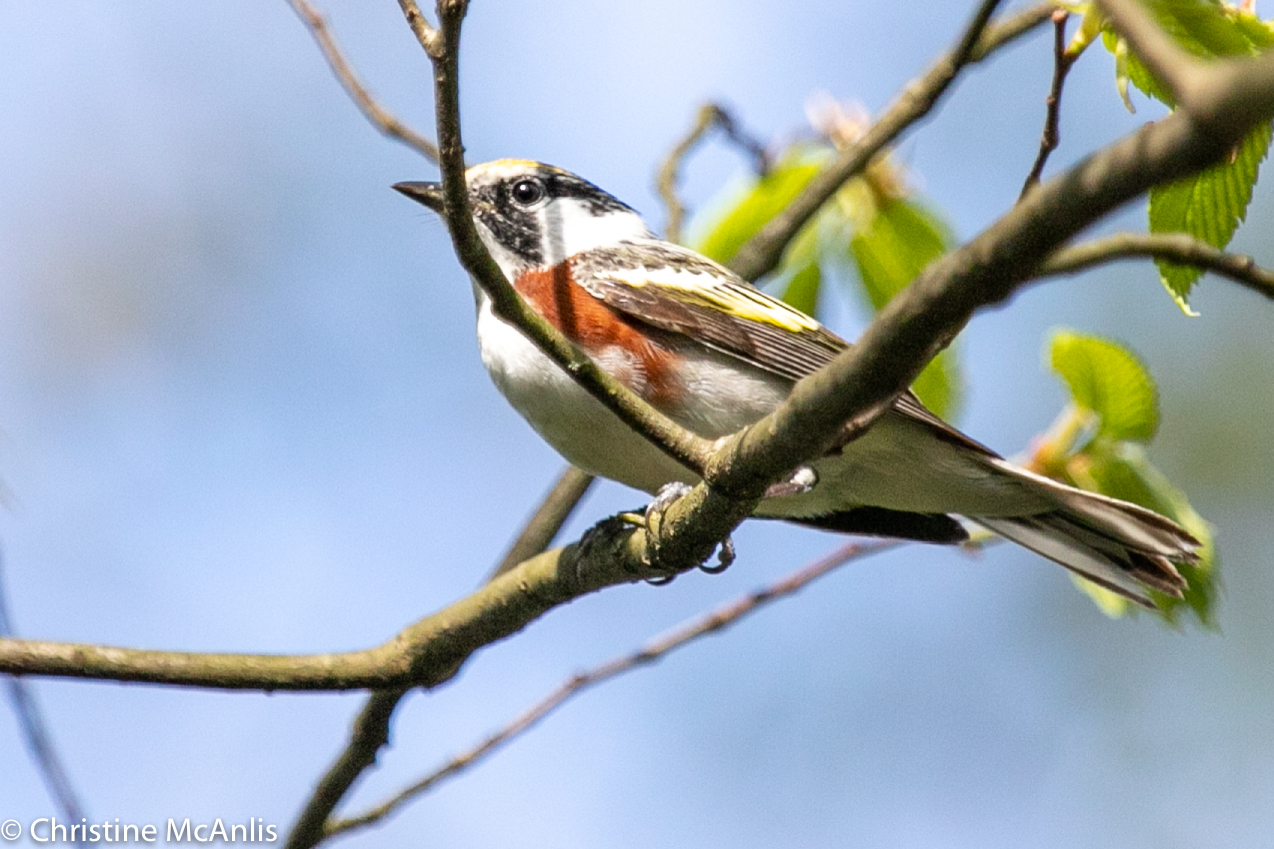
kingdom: Animalia
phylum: Chordata
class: Aves
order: Passeriformes
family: Parulidae
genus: Setophaga
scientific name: Setophaga pensylvanica
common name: Chestnut-sided warbler
